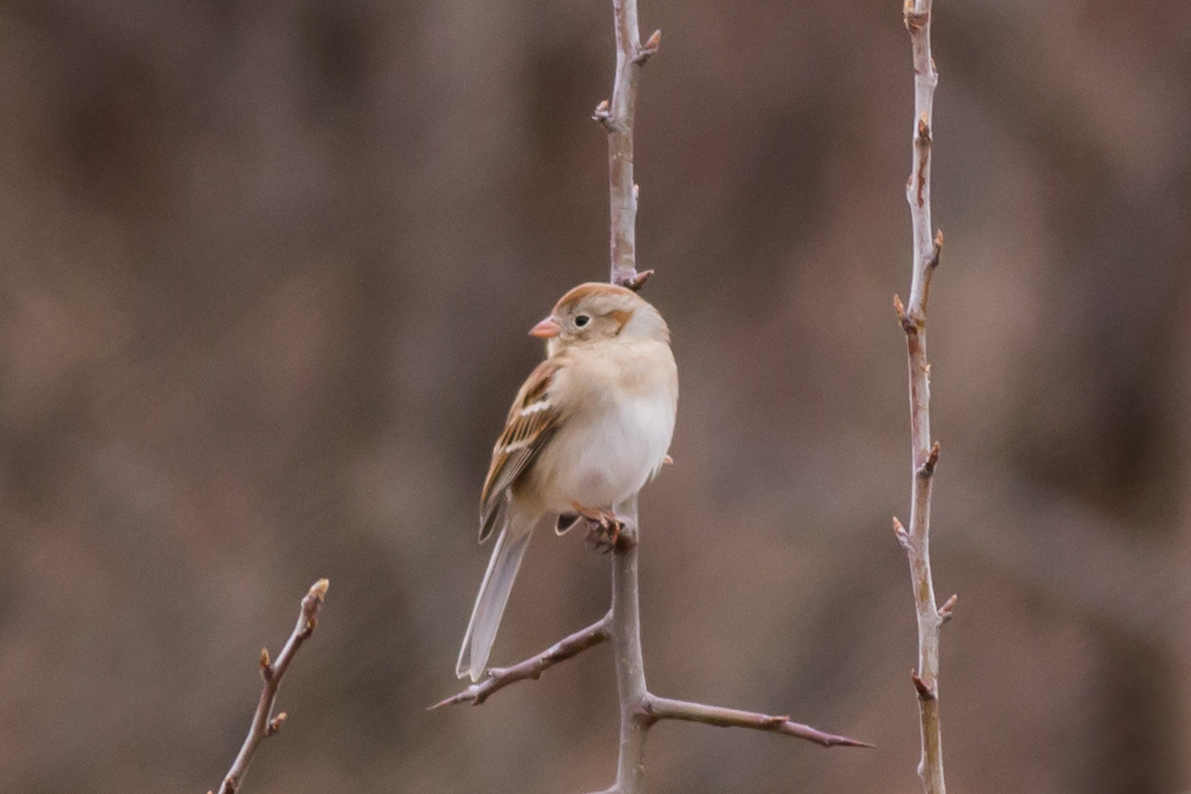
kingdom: Animalia
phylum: Chordata
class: Aves
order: Passeriformes
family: Passerellidae
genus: Spizella
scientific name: Spizella pusilla
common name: Field sparrow
